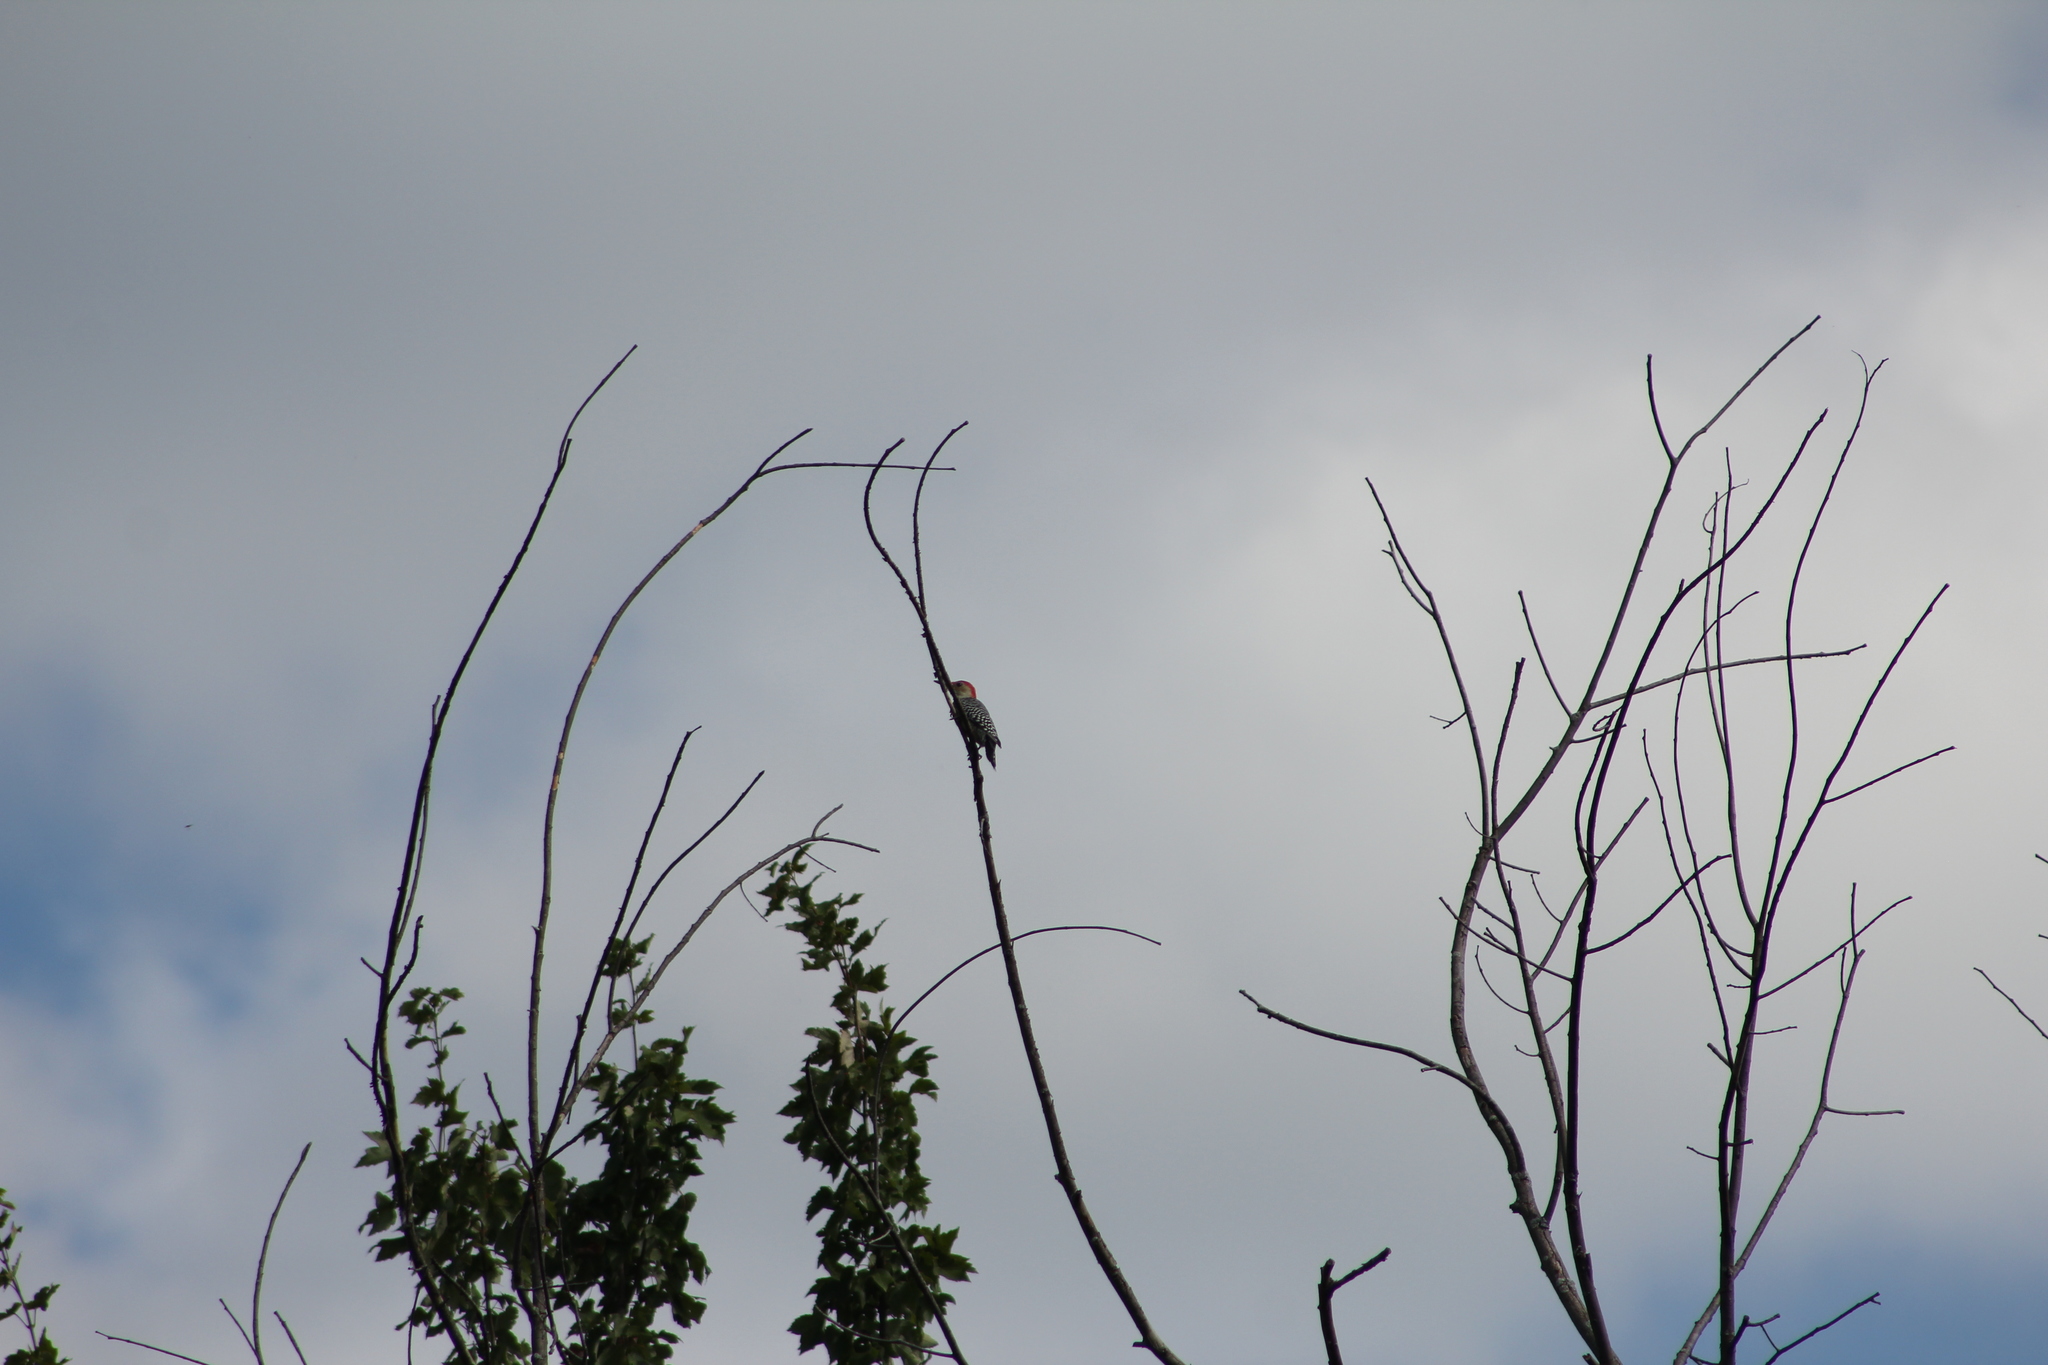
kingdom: Animalia
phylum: Chordata
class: Aves
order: Piciformes
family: Picidae
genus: Melanerpes
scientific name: Melanerpes carolinus
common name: Red-bellied woodpecker
